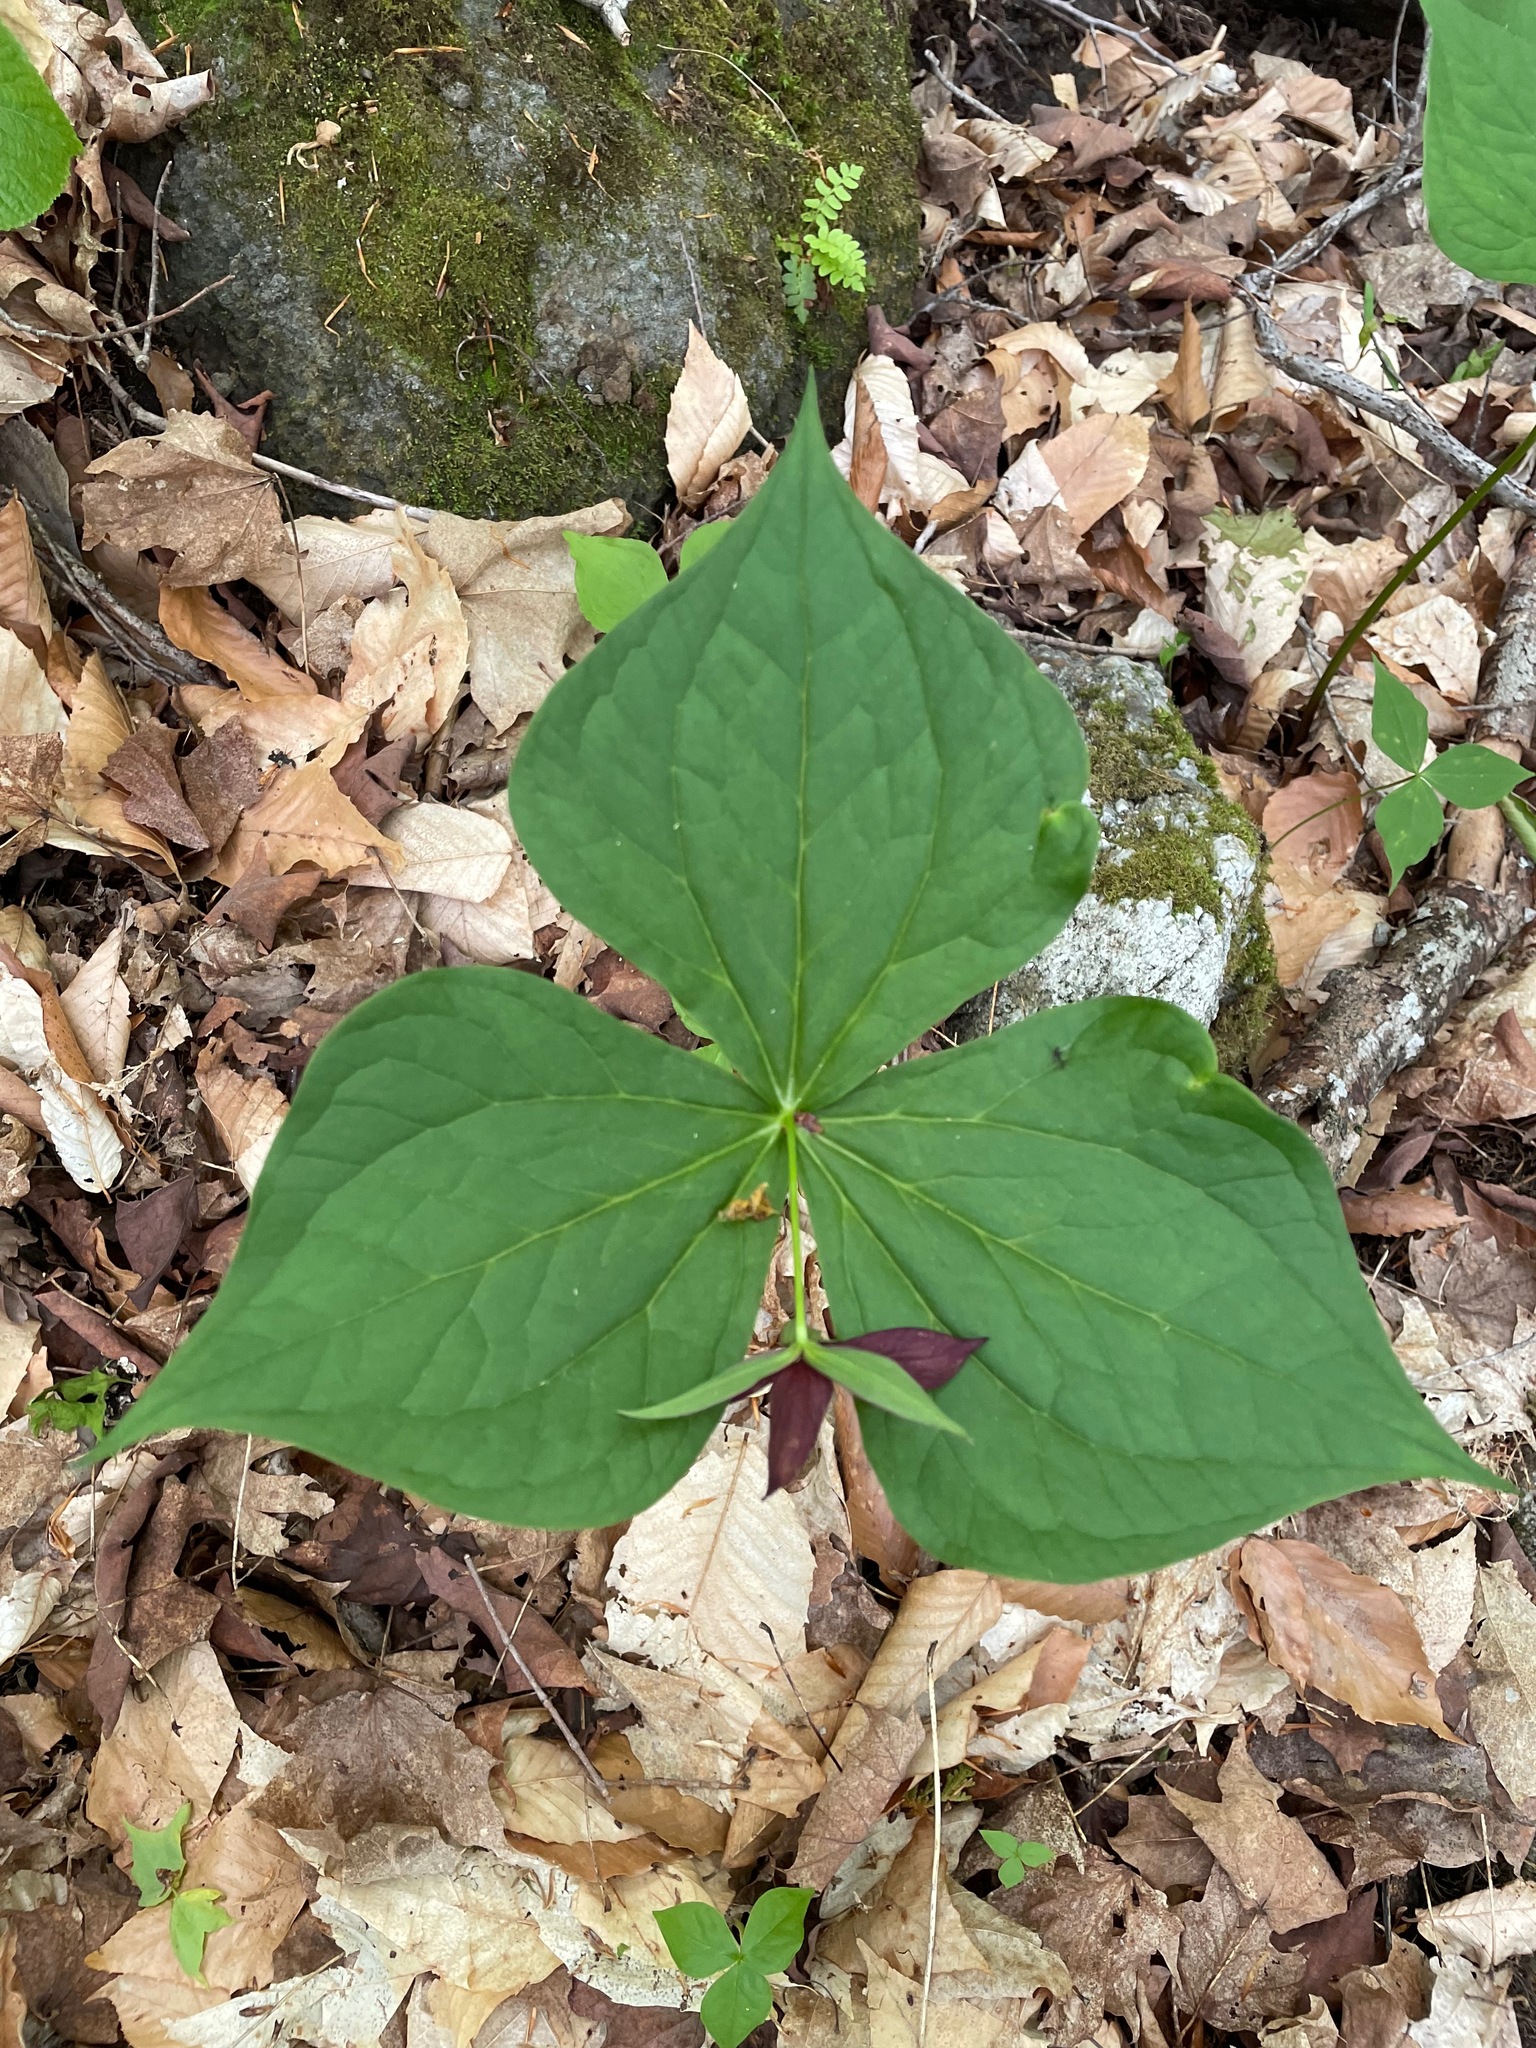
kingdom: Plantae
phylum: Tracheophyta
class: Liliopsida
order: Liliales
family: Melanthiaceae
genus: Trillium
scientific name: Trillium erectum
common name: Purple trillium
